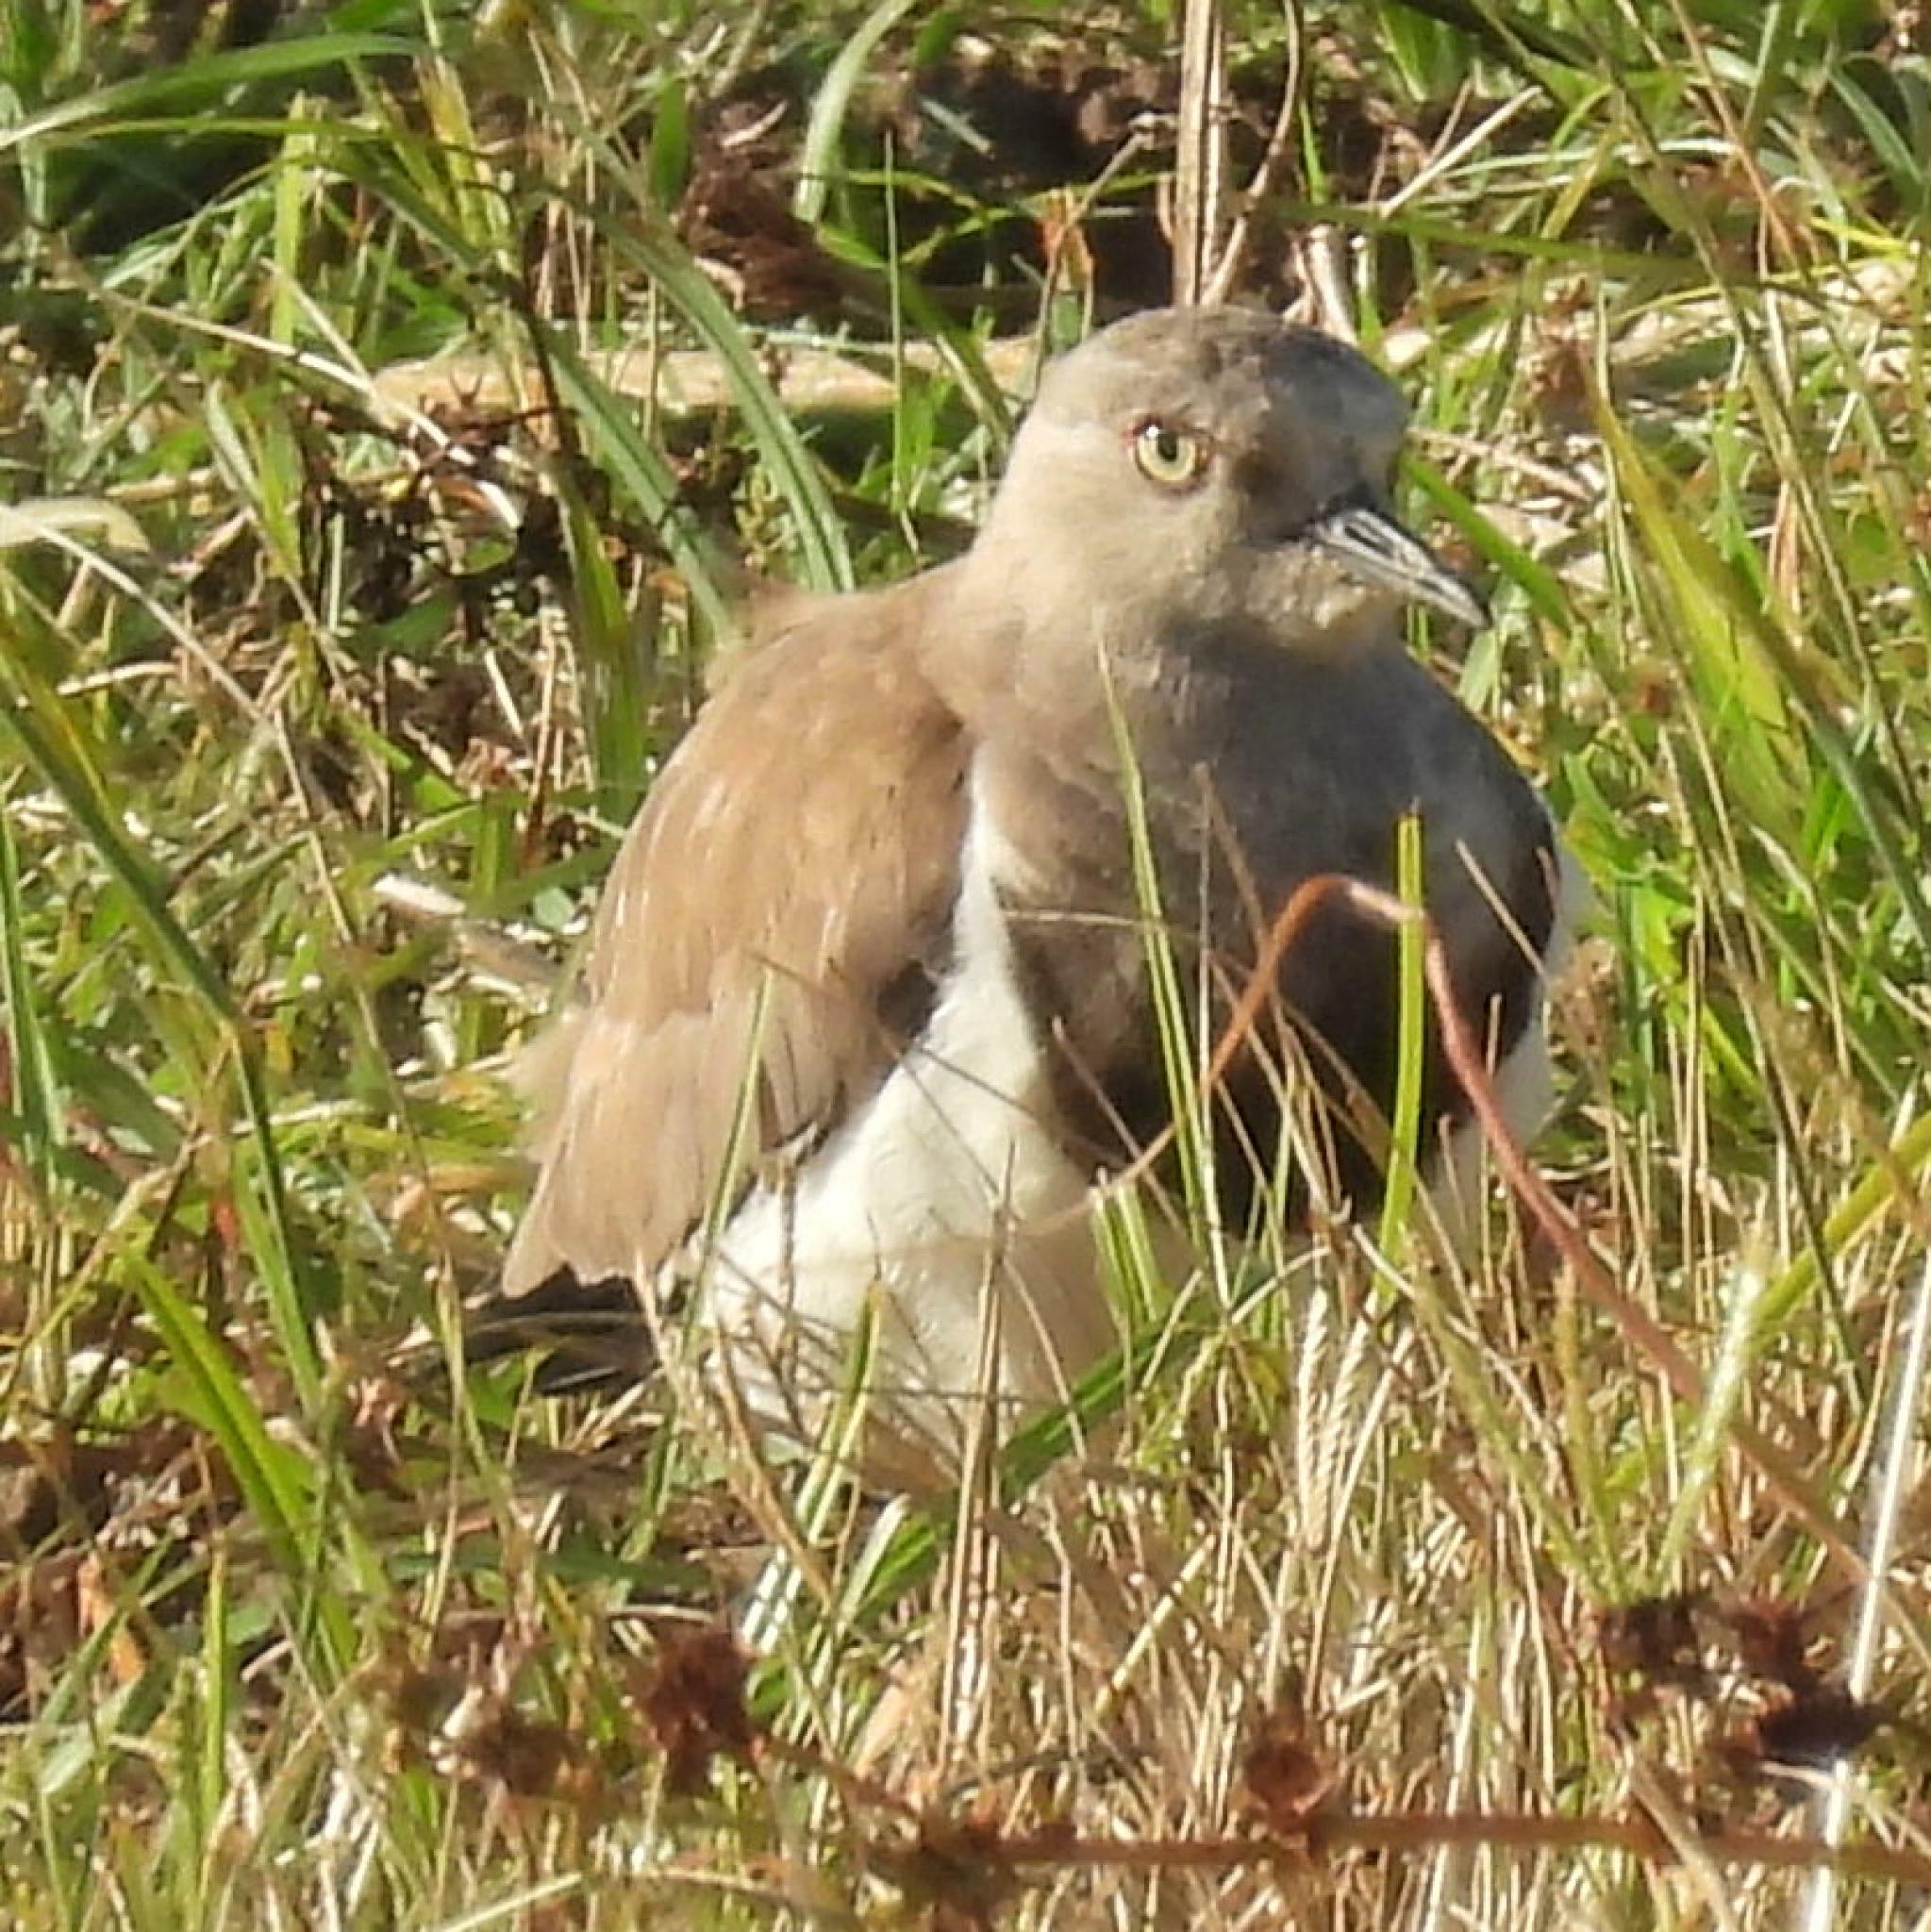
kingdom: Animalia
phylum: Chordata
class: Aves
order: Charadriiformes
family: Charadriidae
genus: Vanellus
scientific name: Vanellus melanopterus
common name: Black-winged lapwing
